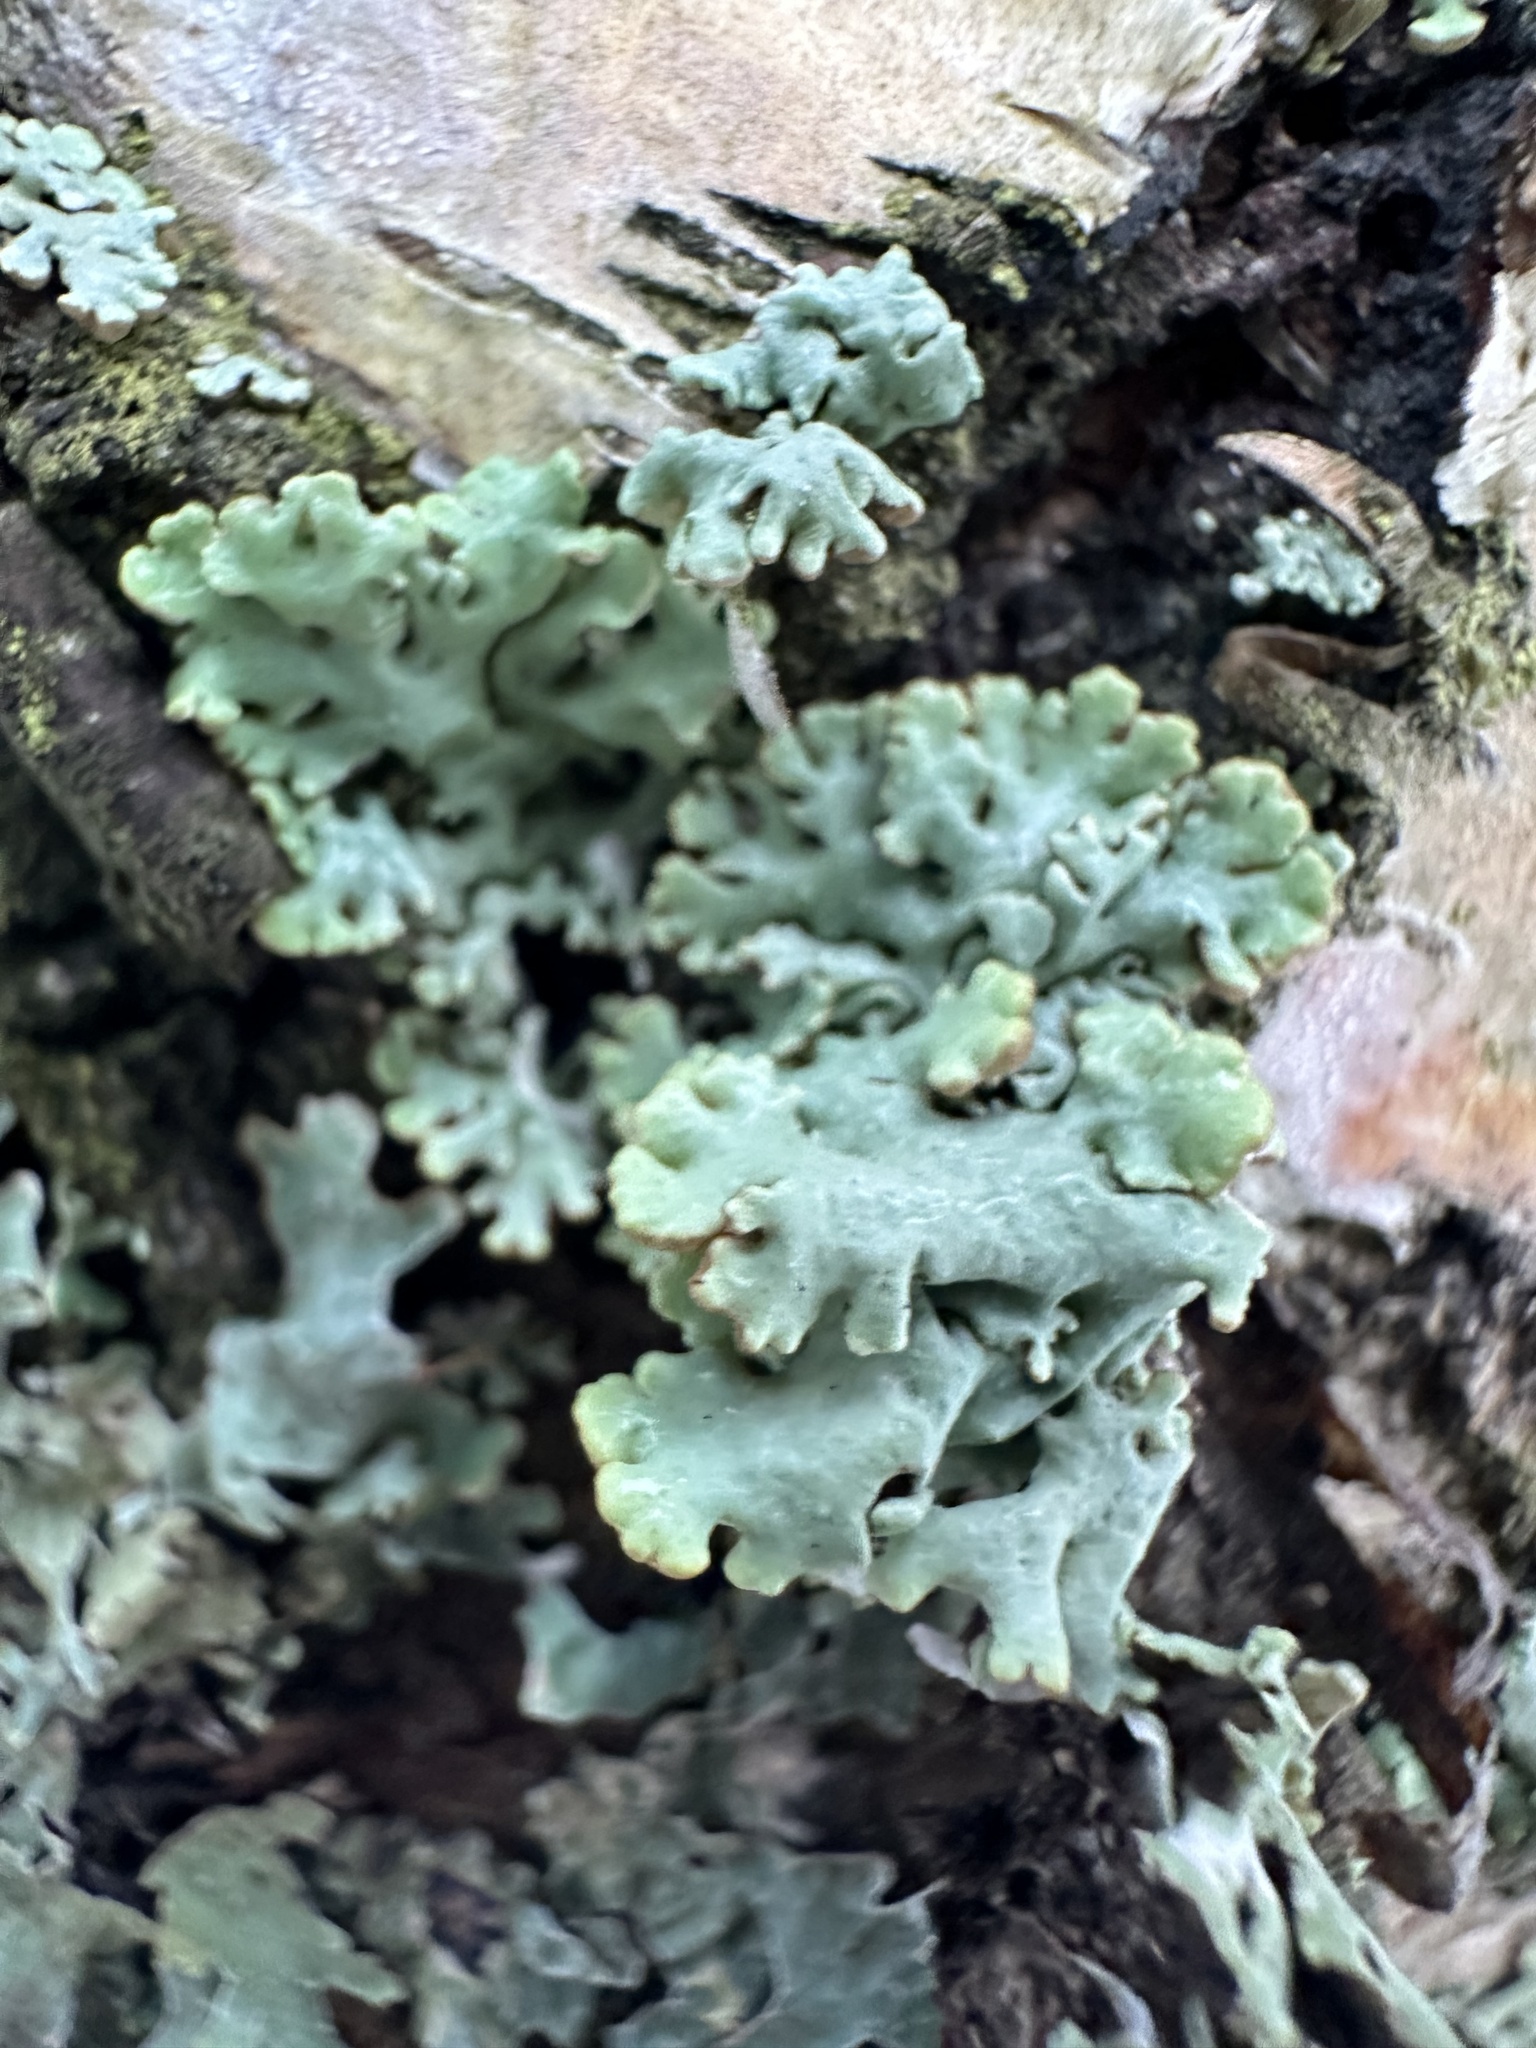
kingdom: Fungi
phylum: Ascomycota
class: Lecanoromycetes
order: Lecanorales
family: Parmeliaceae
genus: Hypogymnia
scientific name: Hypogymnia physodes
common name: Dark crottle
